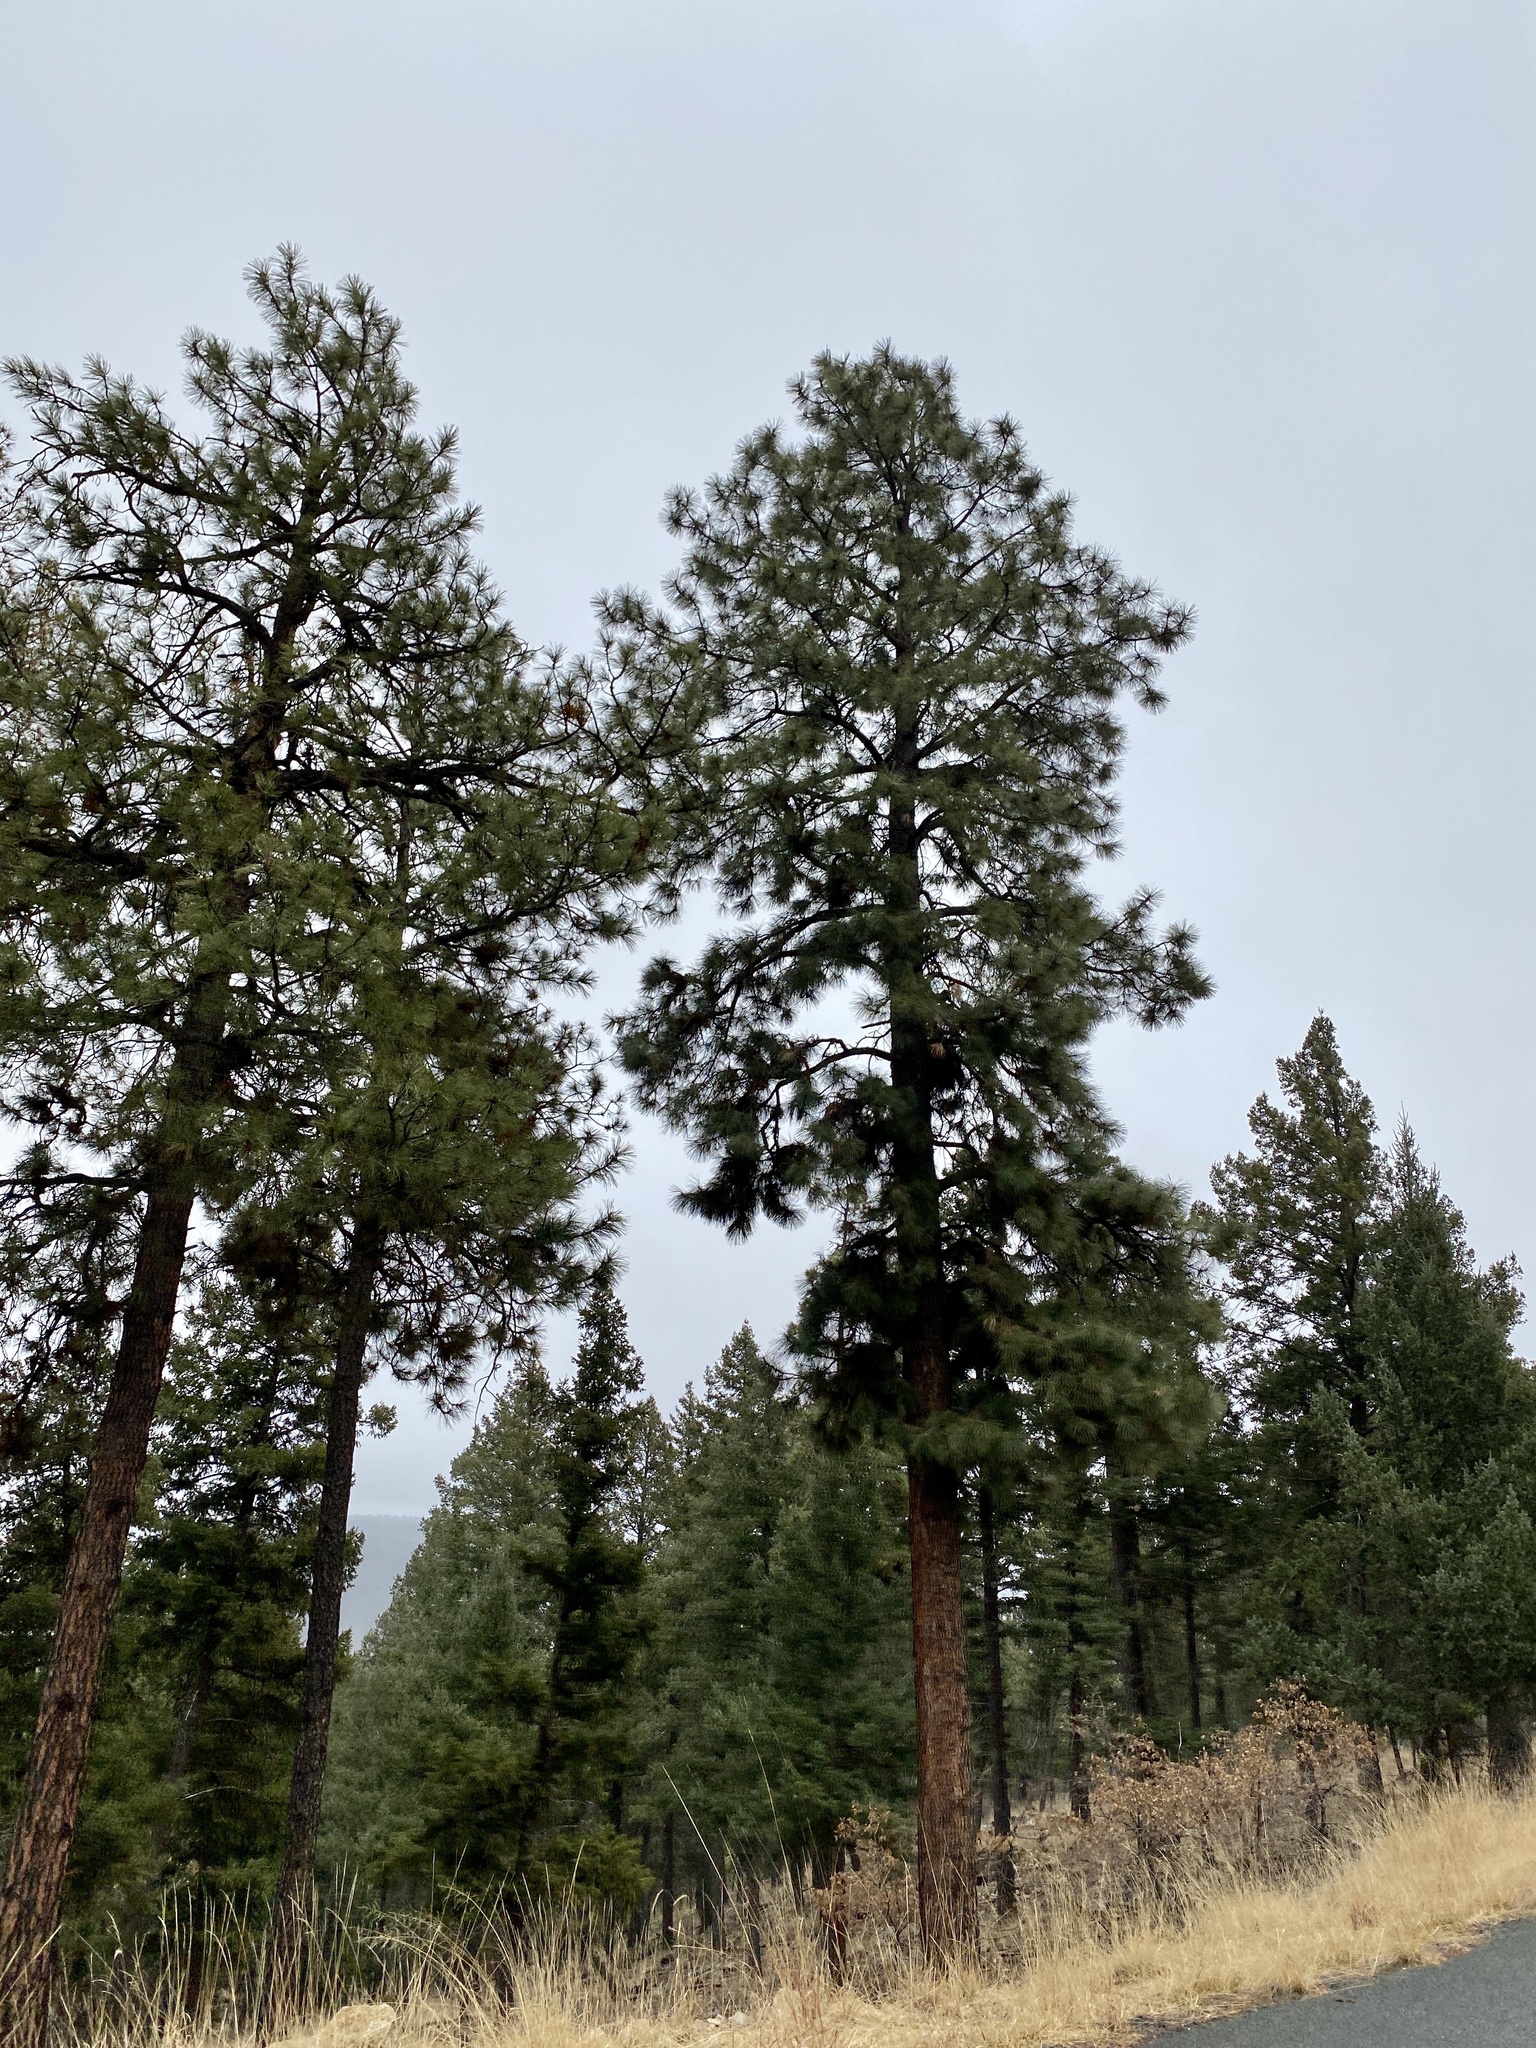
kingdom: Plantae
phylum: Tracheophyta
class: Pinopsida
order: Pinales
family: Pinaceae
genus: Pinus
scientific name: Pinus ponderosa
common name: Western yellow-pine
